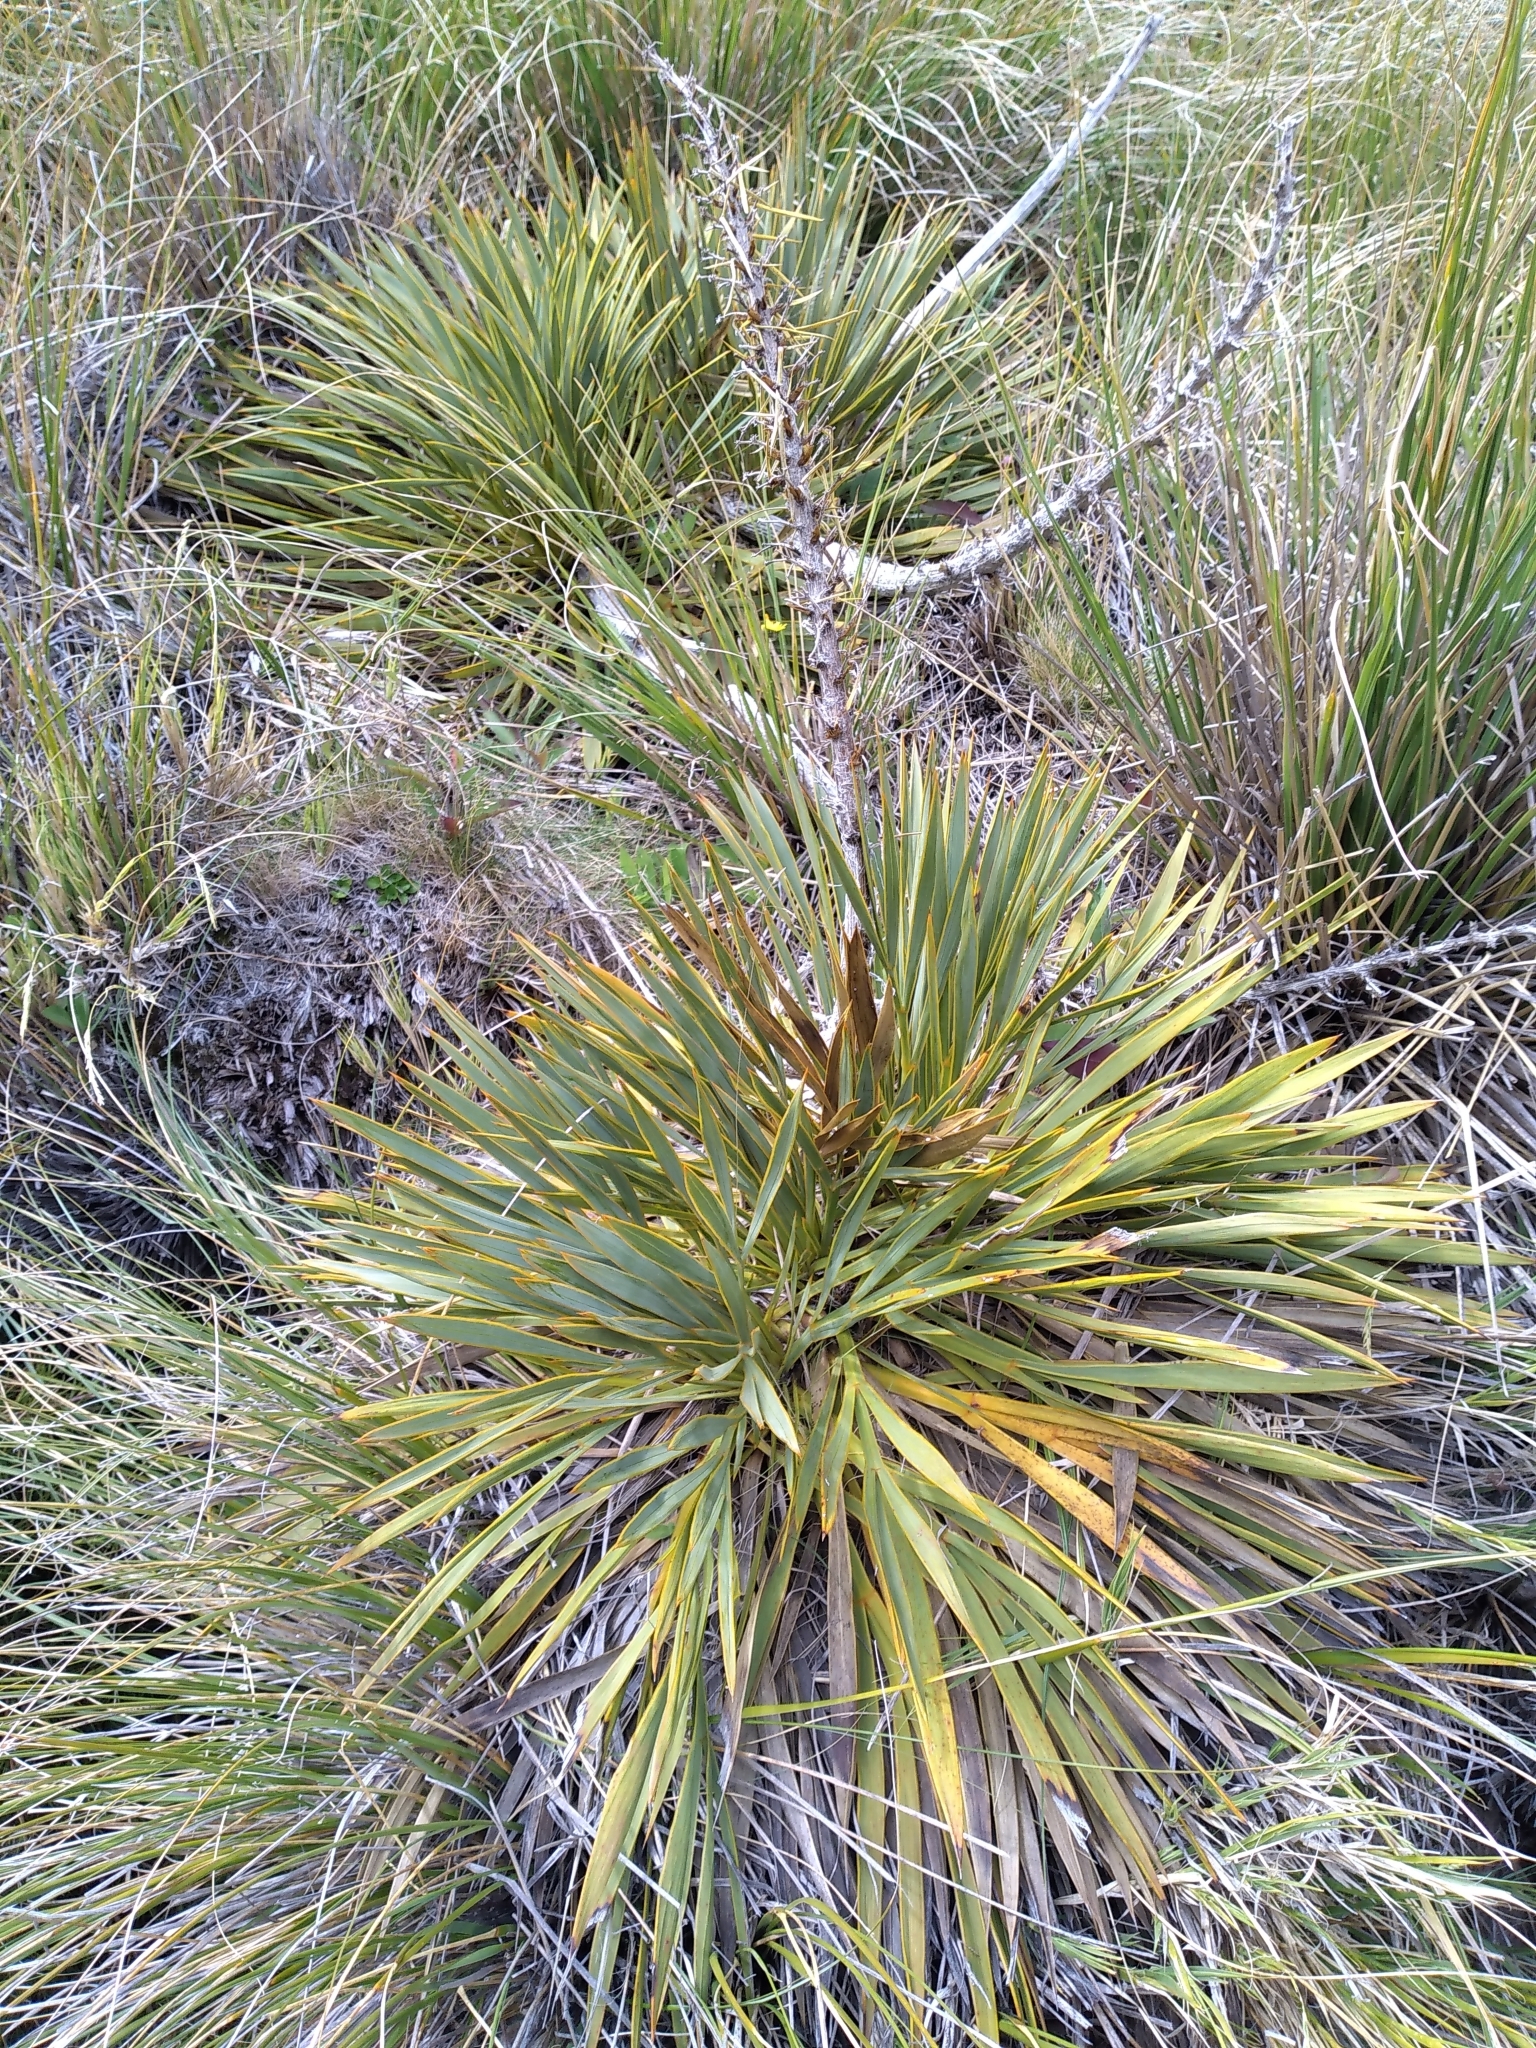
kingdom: Plantae
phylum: Tracheophyta
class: Magnoliopsida
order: Apiales
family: Apiaceae
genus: Aciphylla
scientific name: Aciphylla aurea
